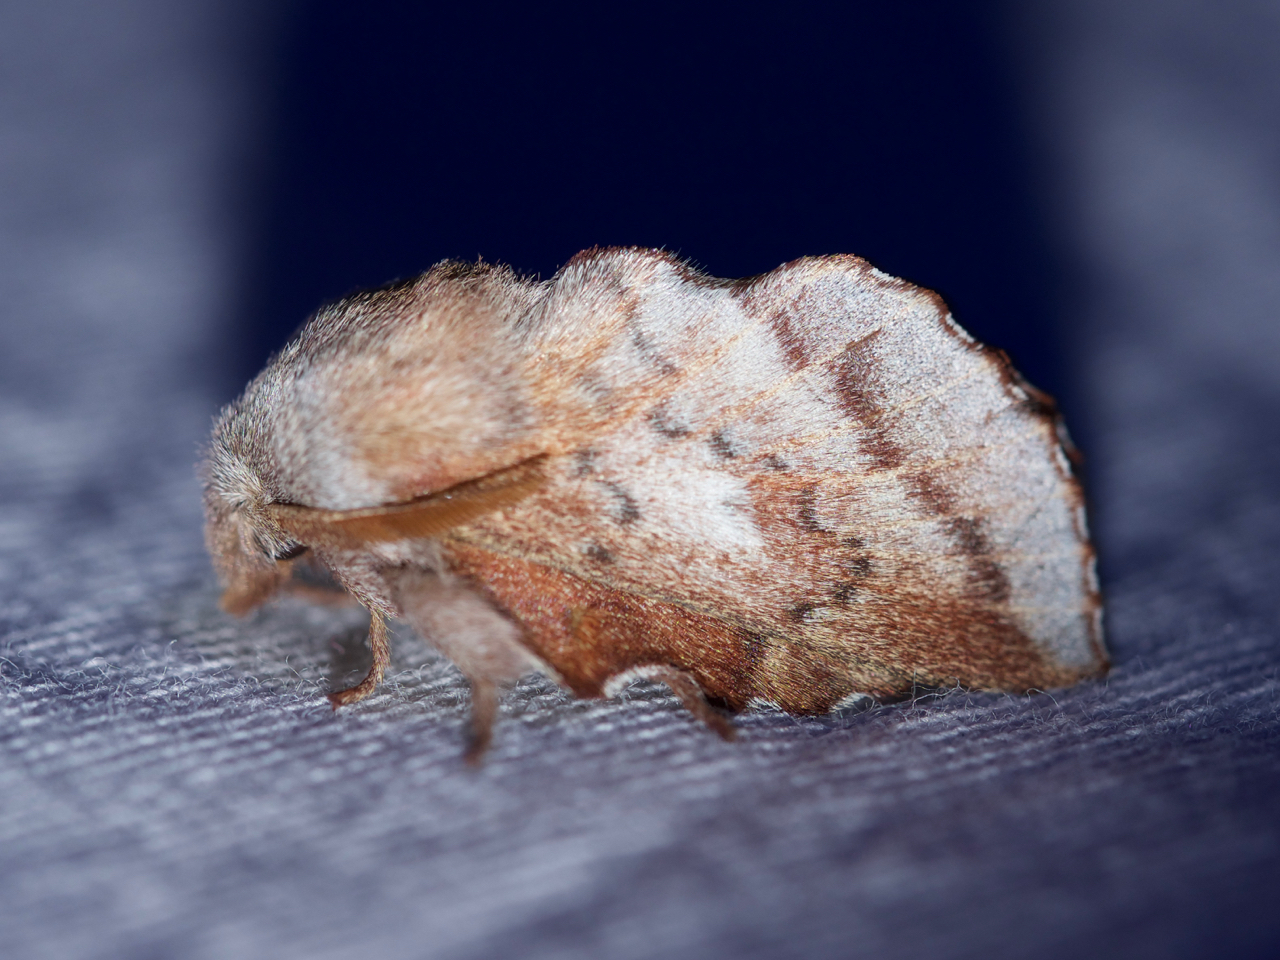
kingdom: Animalia
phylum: Arthropoda
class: Insecta
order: Lepidoptera
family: Lasiocampidae
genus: Phyllodesma
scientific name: Phyllodesma americana
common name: American lappet moth
